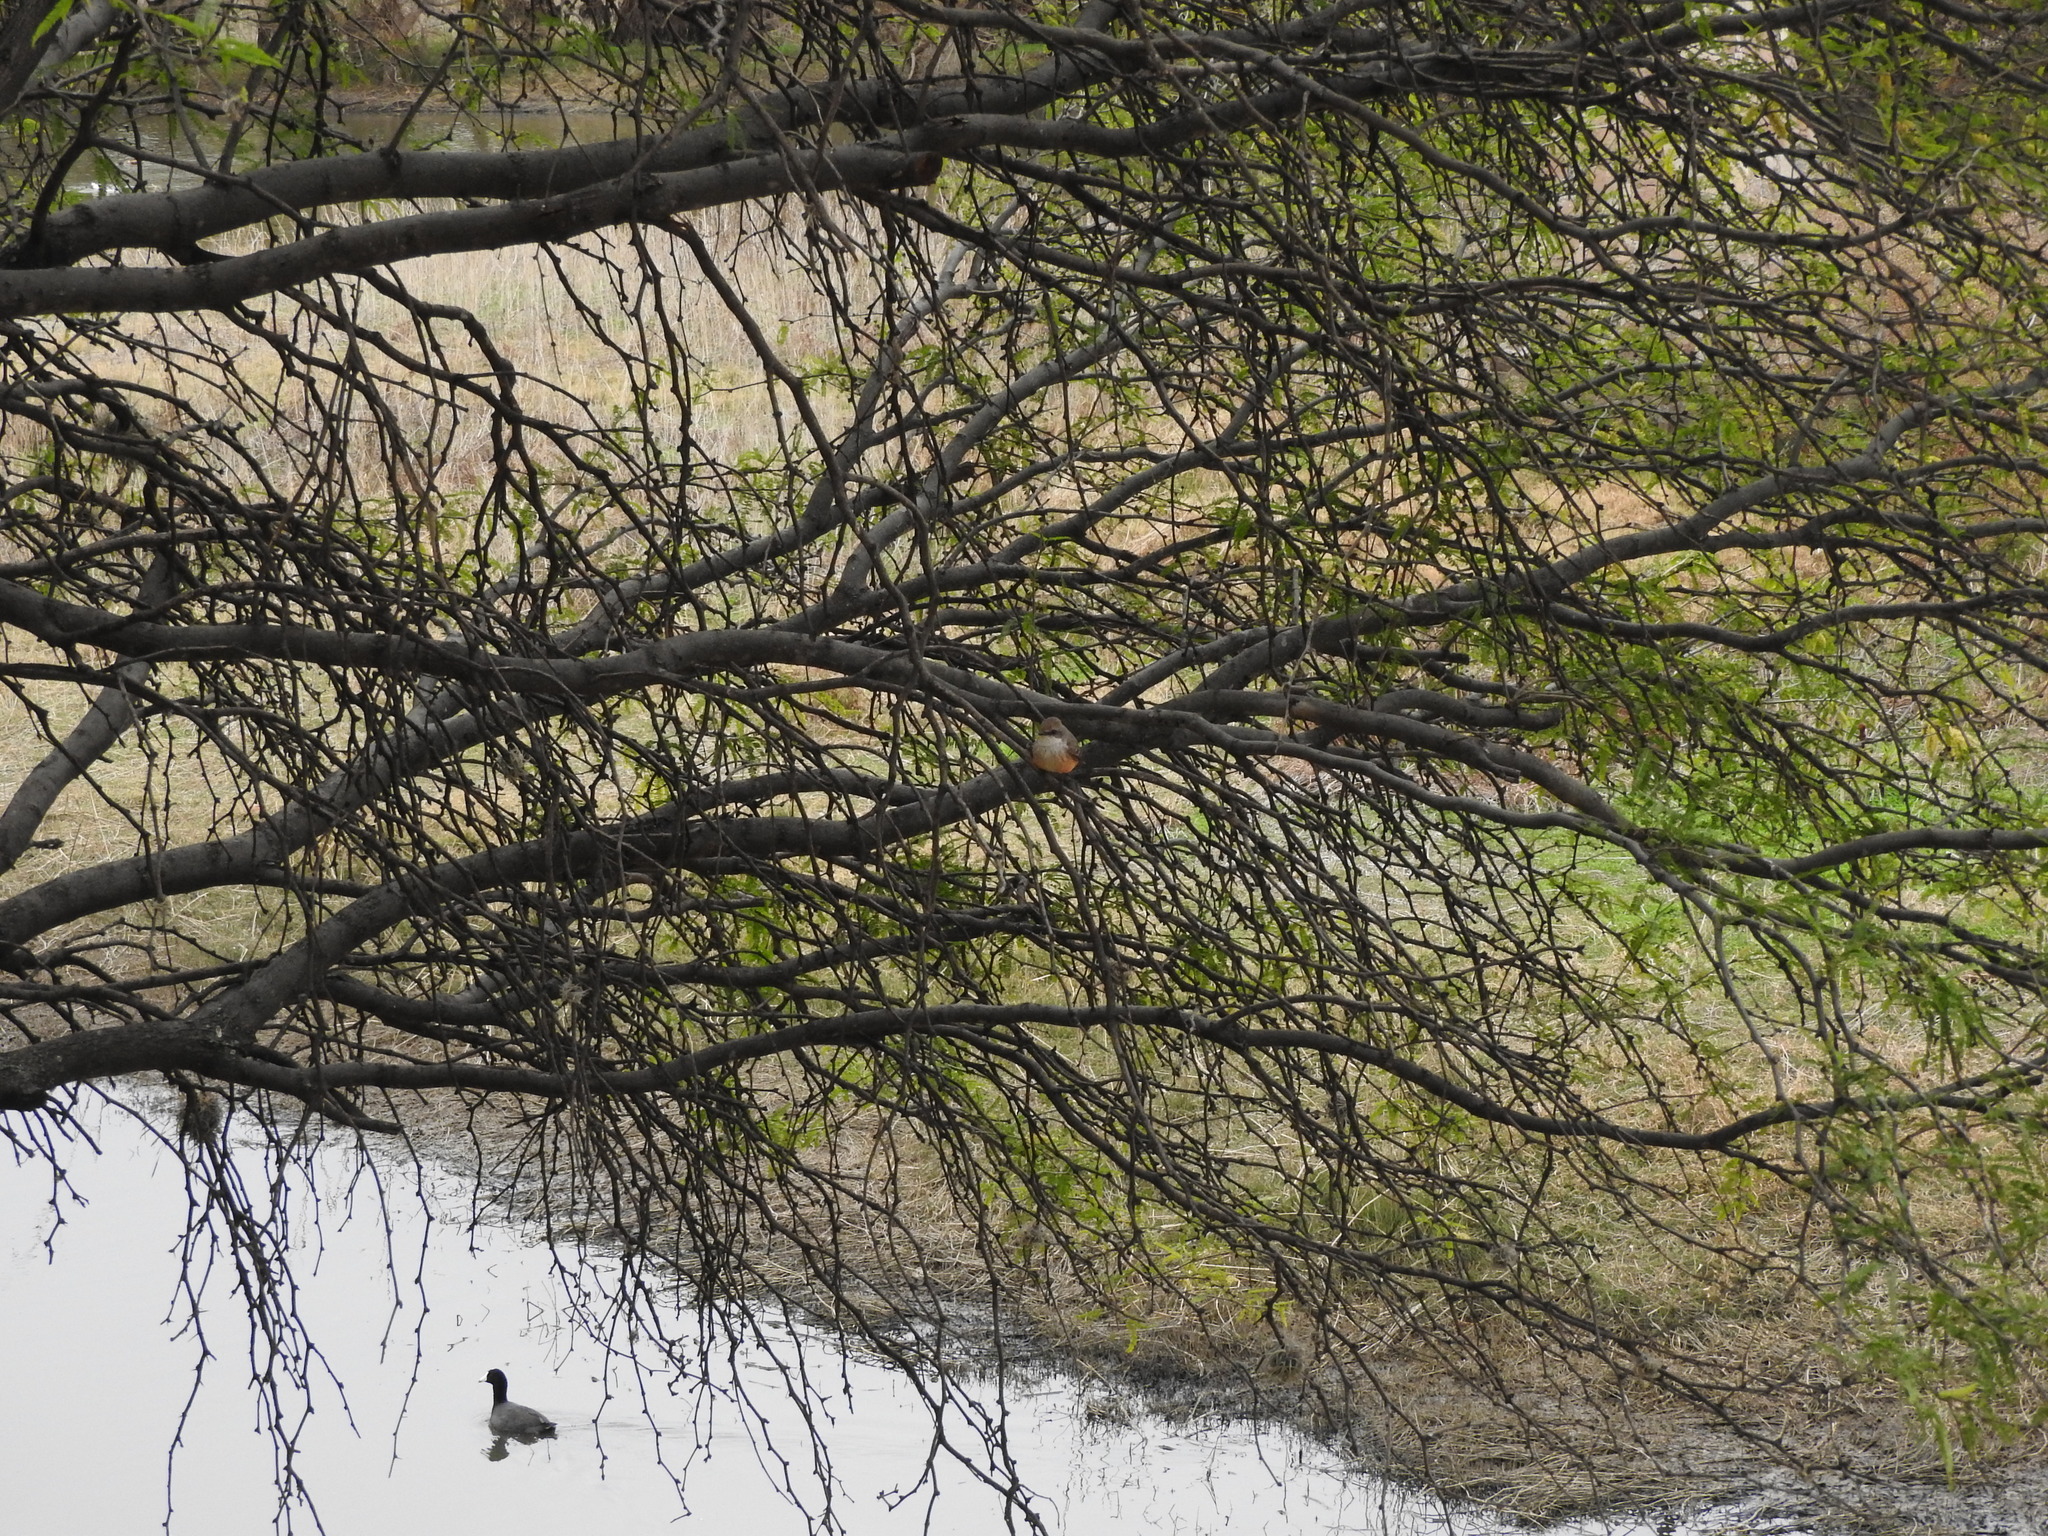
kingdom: Animalia
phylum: Chordata
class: Aves
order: Gruiformes
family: Rallidae
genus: Fulica
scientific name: Fulica americana
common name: American coot
